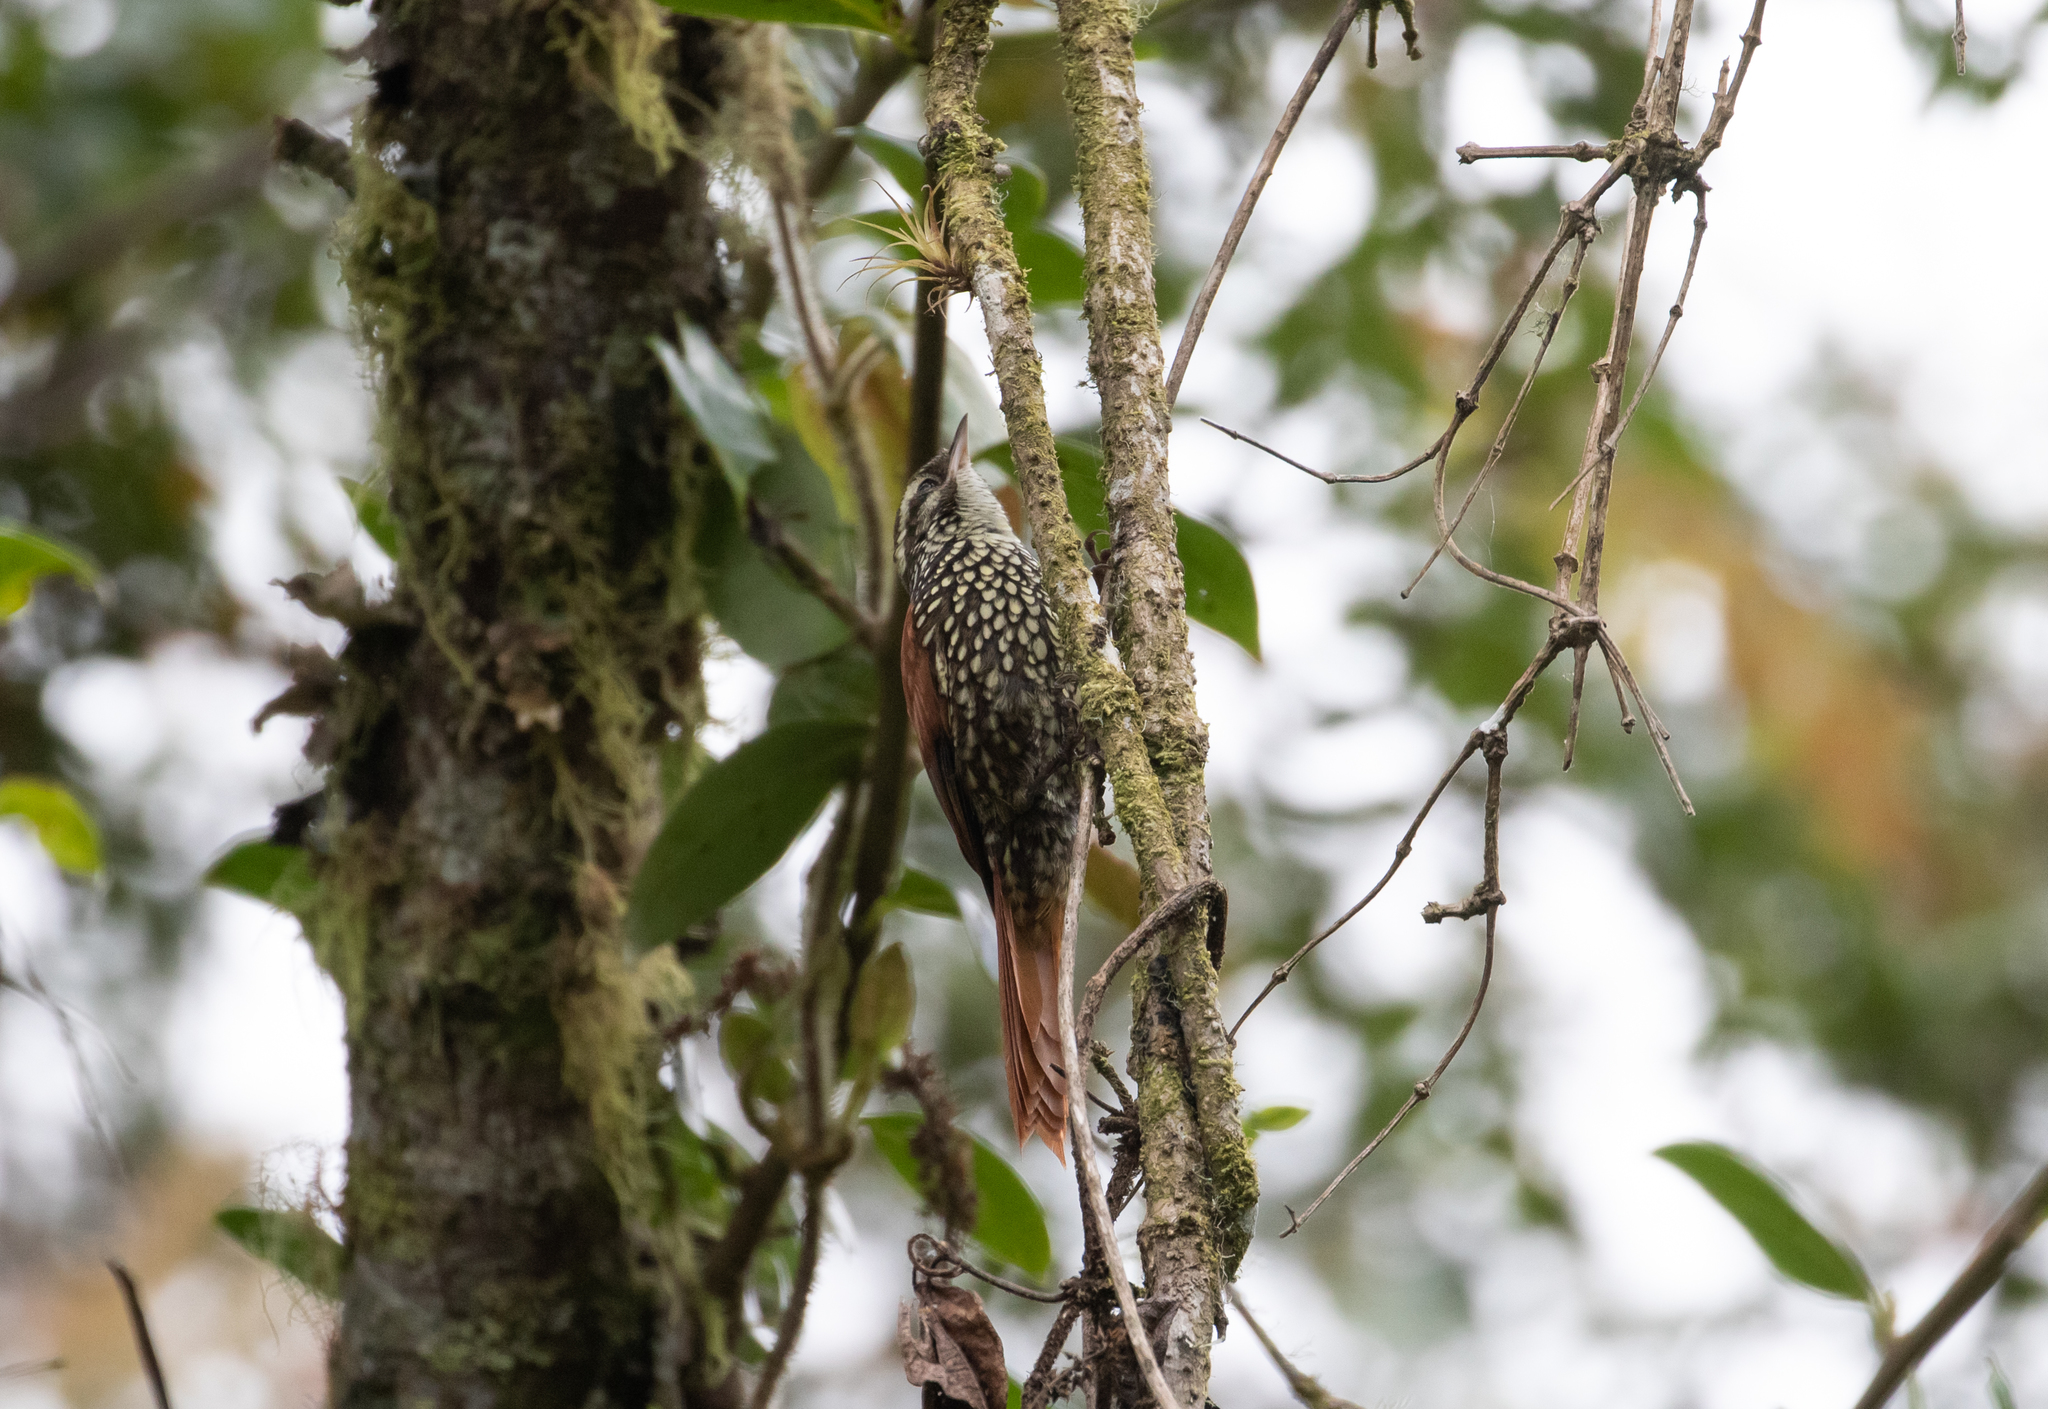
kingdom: Animalia
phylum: Chordata
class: Aves
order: Passeriformes
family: Furnariidae
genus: Margarornis
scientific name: Margarornis squamiger
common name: Pearled treerunner
